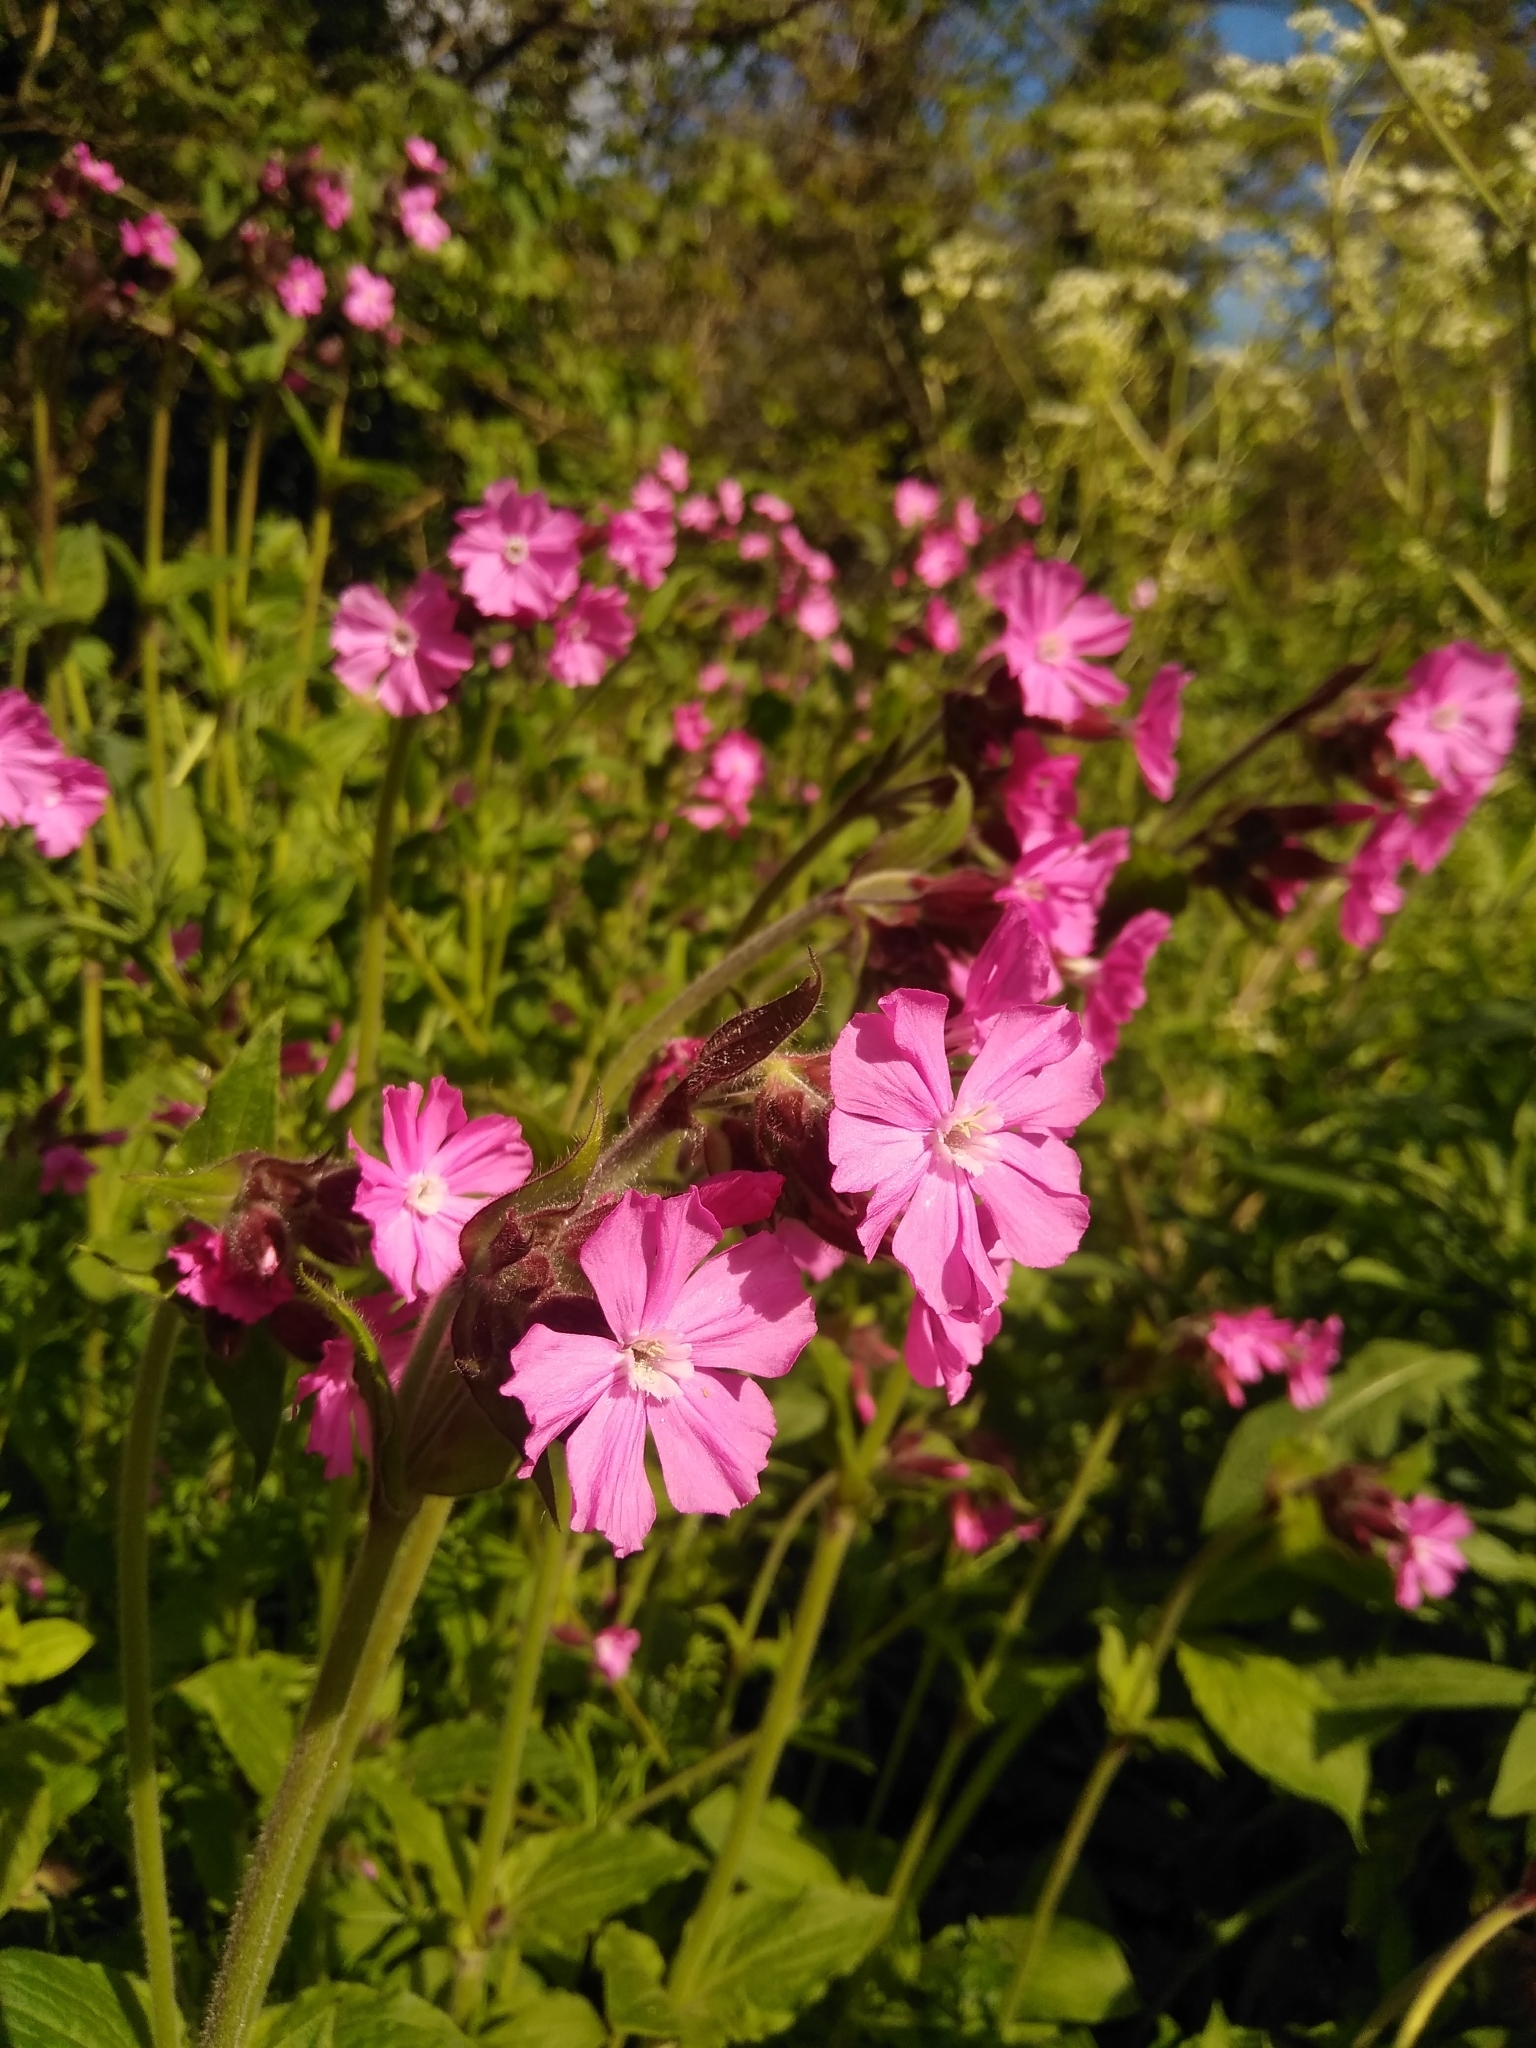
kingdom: Plantae
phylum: Tracheophyta
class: Magnoliopsida
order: Caryophyllales
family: Caryophyllaceae
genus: Silene
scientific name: Silene dioica
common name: Red campion
